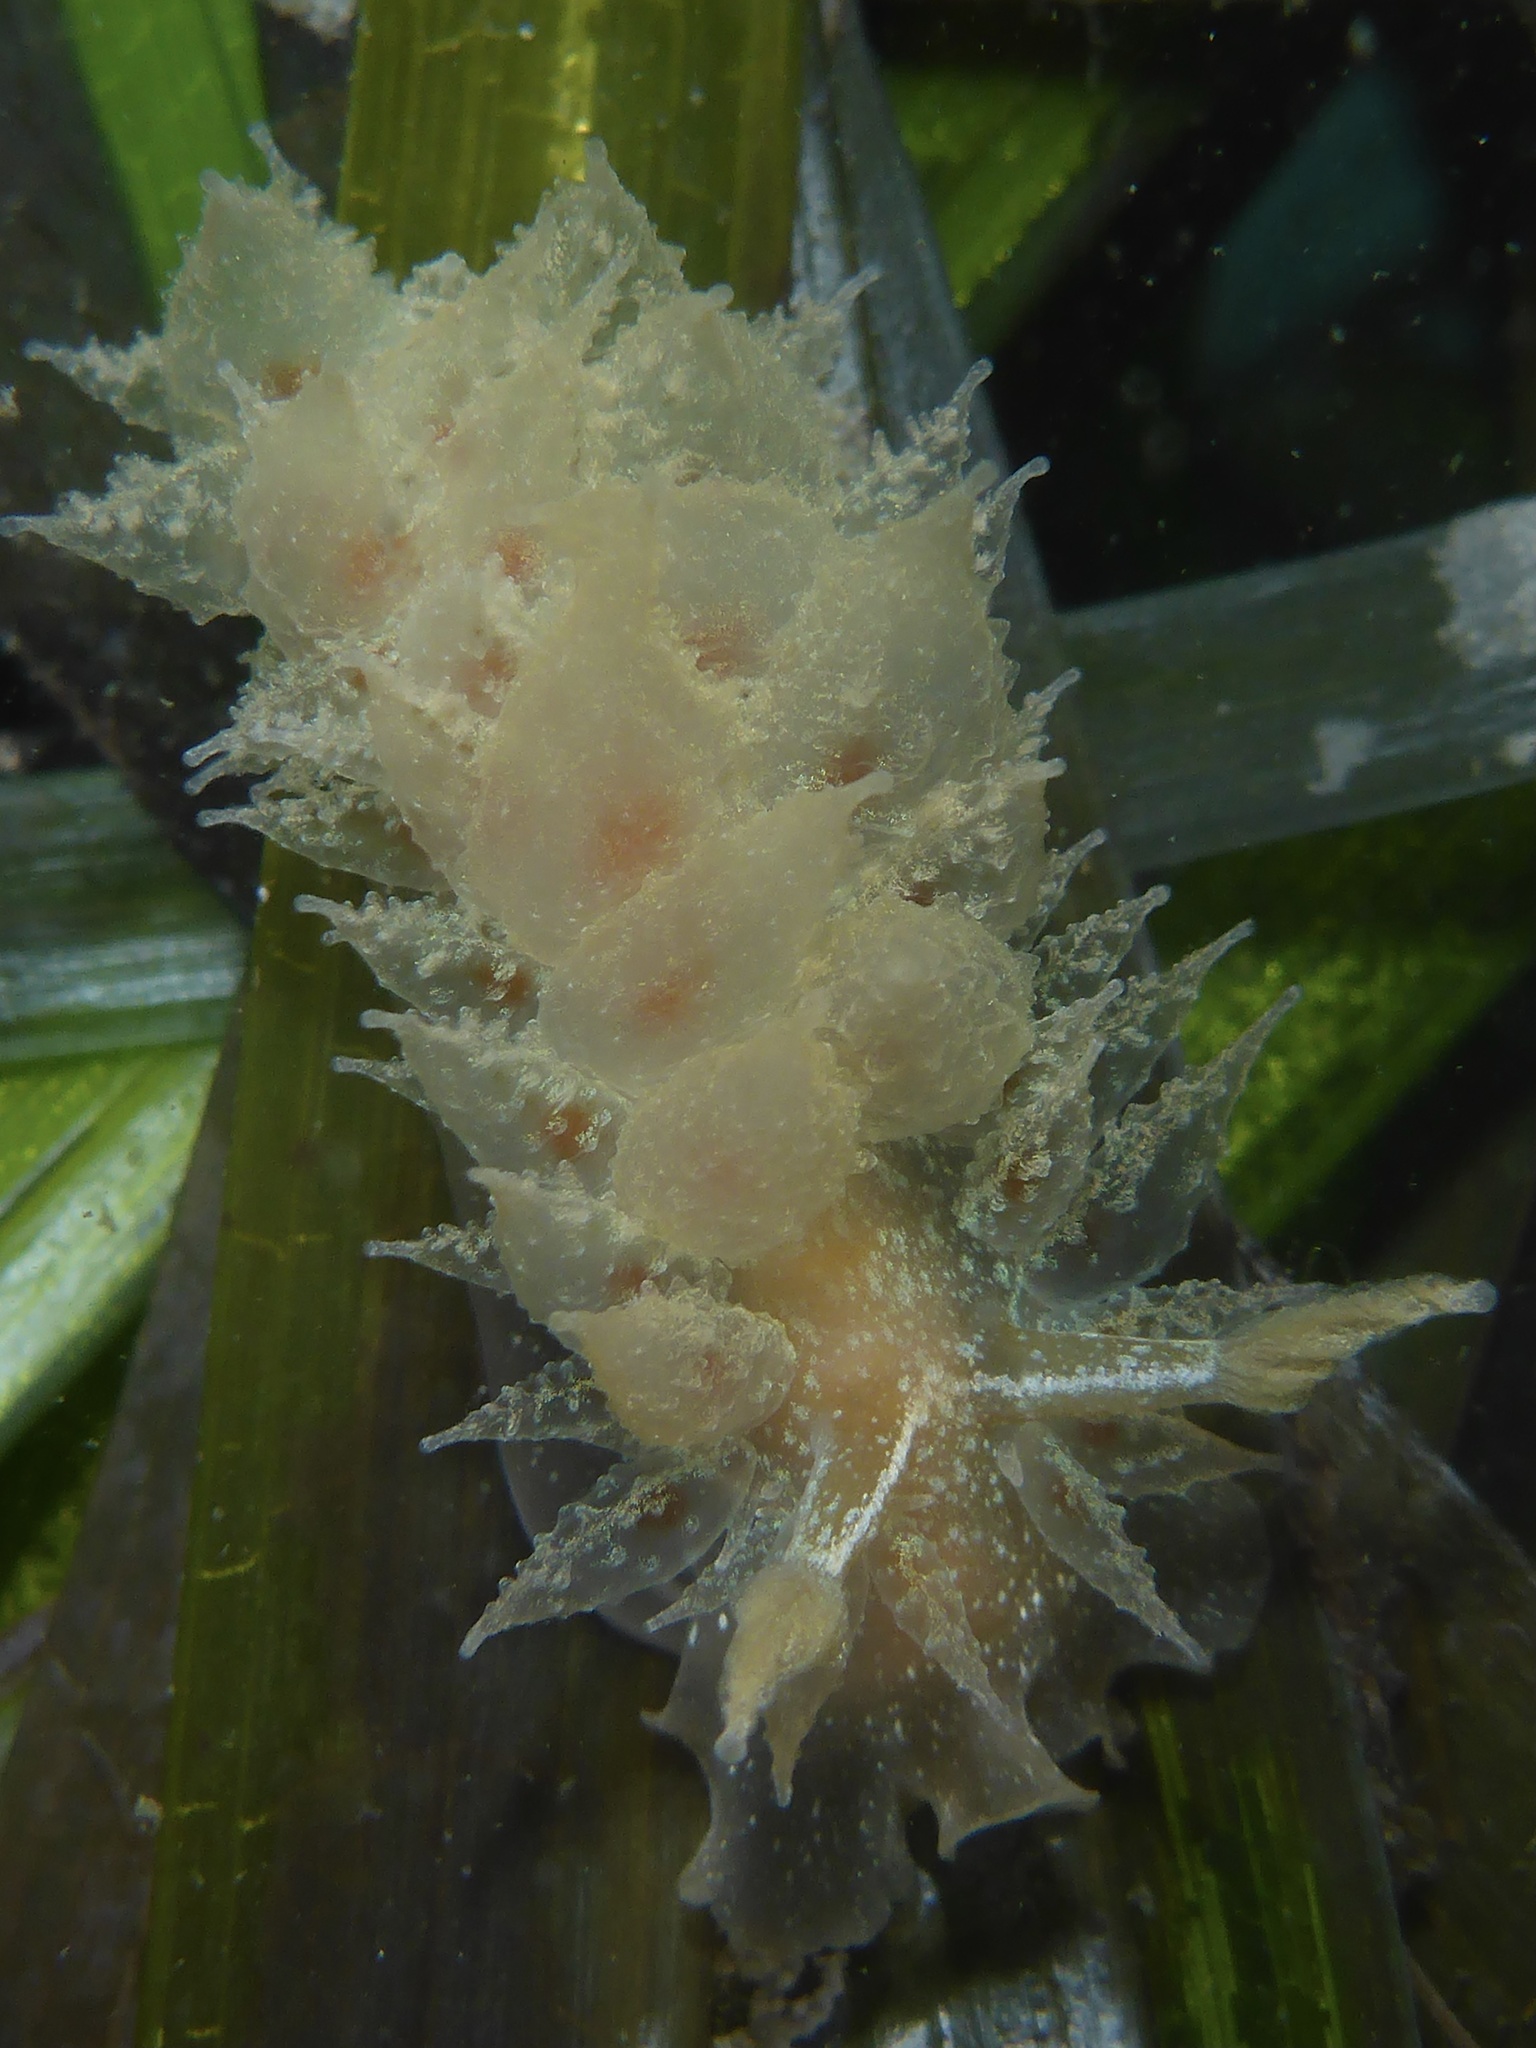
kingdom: Animalia
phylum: Mollusca
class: Gastropoda
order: Nudibranchia
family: Dironidae
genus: Dirona
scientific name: Dirona picta
